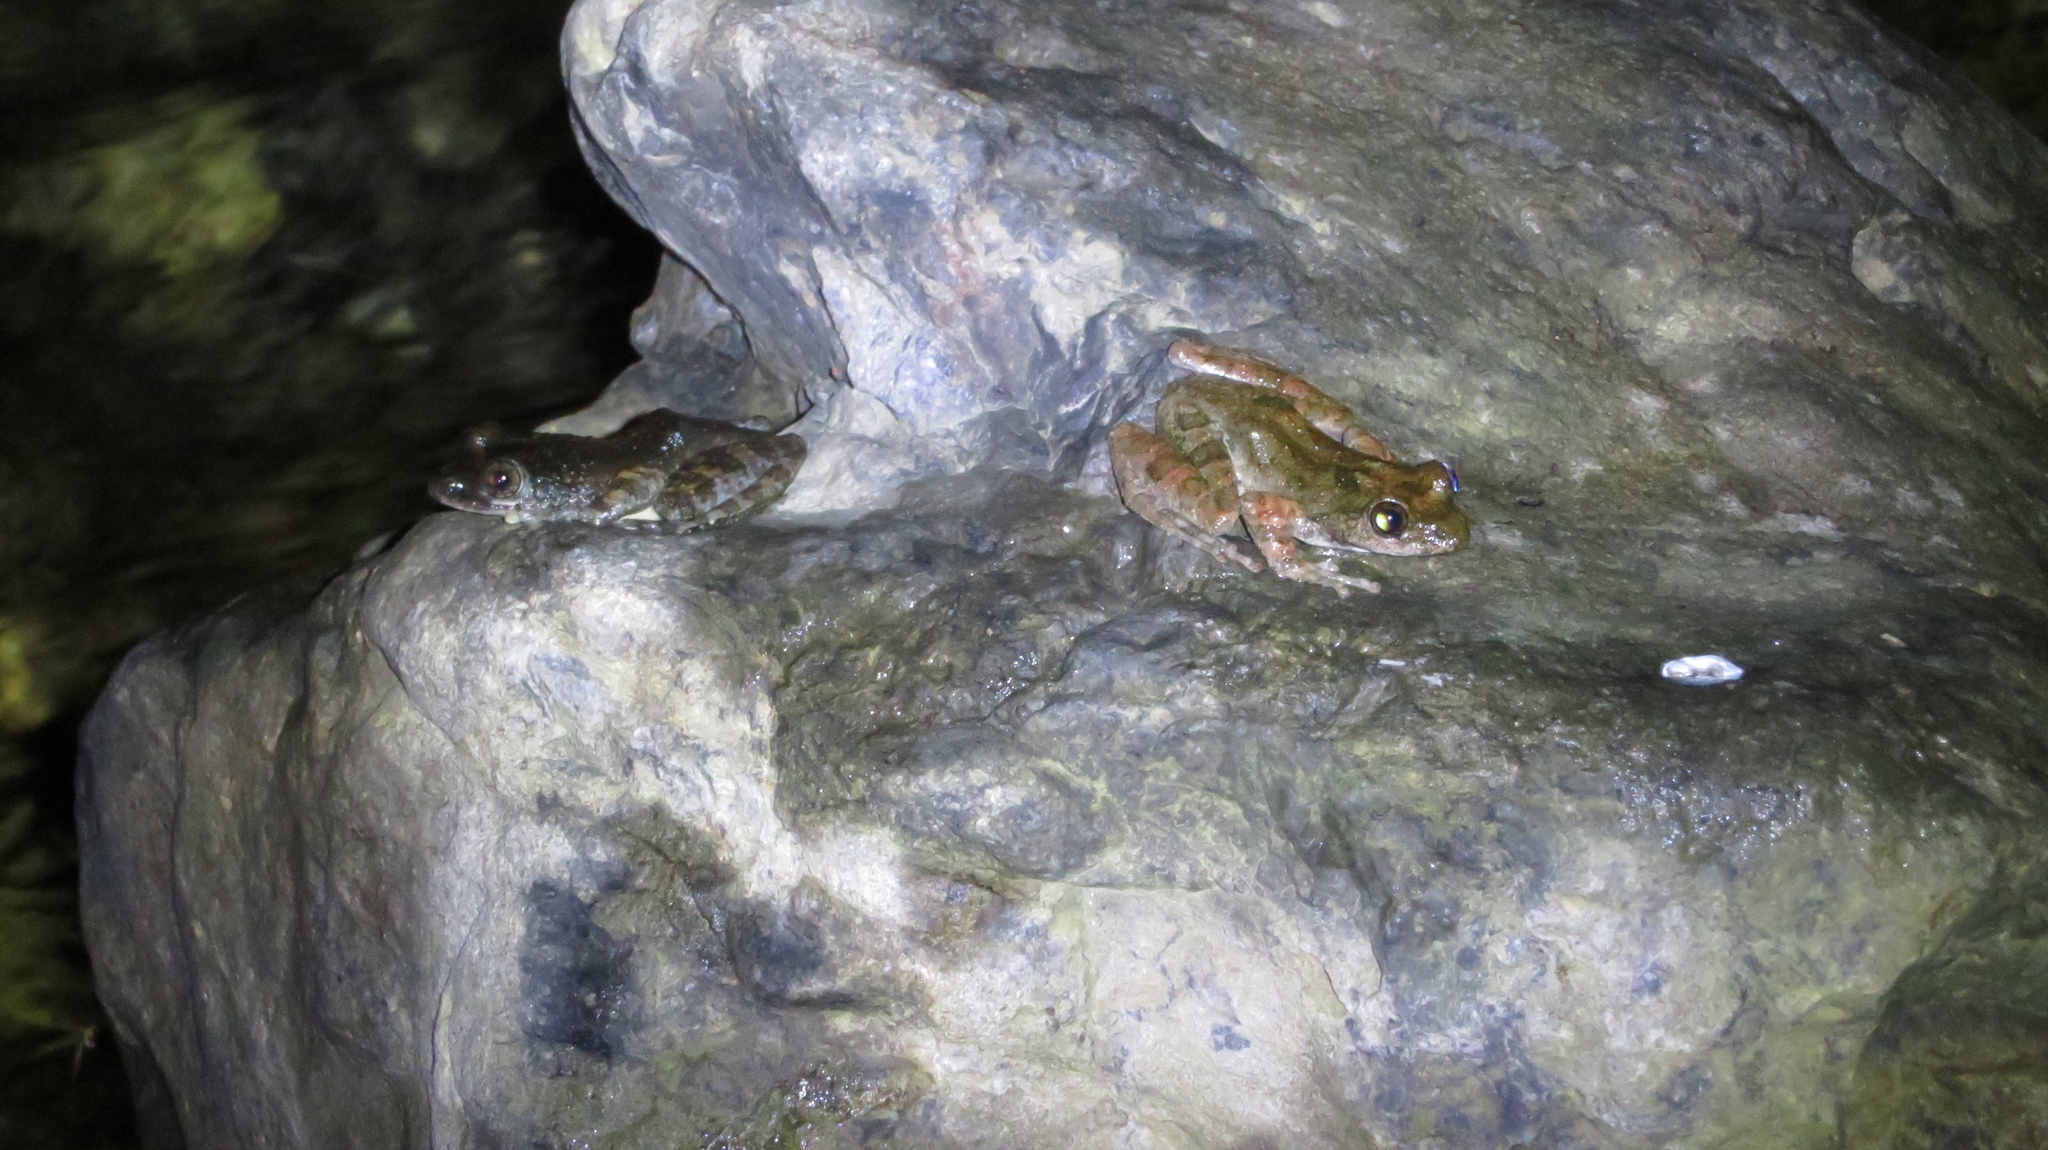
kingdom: Animalia
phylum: Chordata
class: Amphibia
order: Anura
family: Rhacophoridae
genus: Buergeria
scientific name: Buergeria buergeri
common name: Buerger's frog
